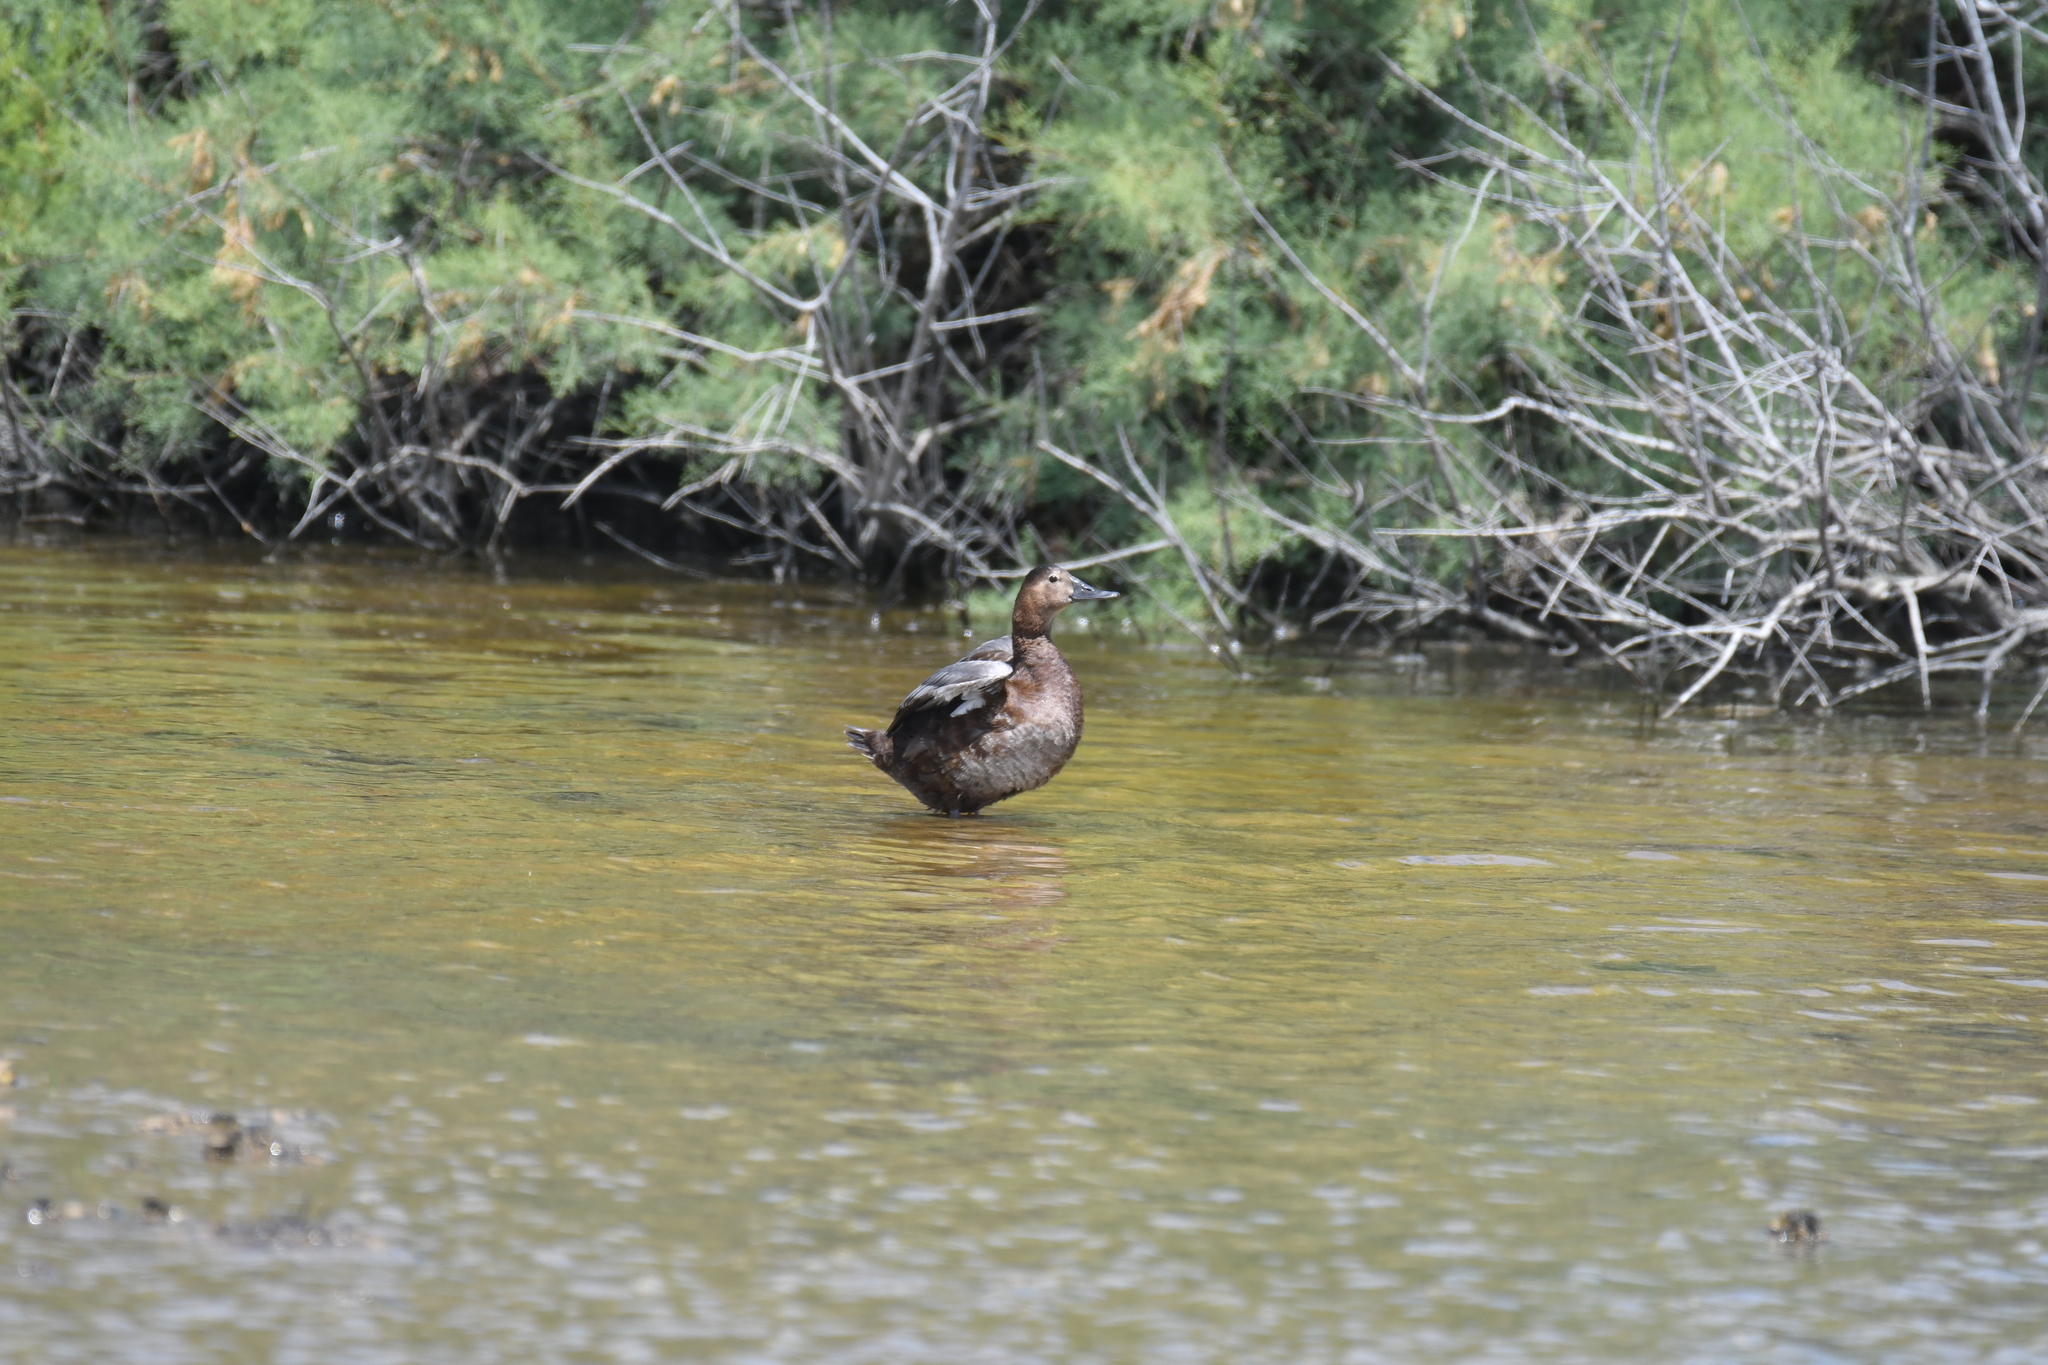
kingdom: Animalia
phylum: Chordata
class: Aves
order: Anseriformes
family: Anatidae
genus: Aythya
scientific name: Aythya ferina
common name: Common pochard
